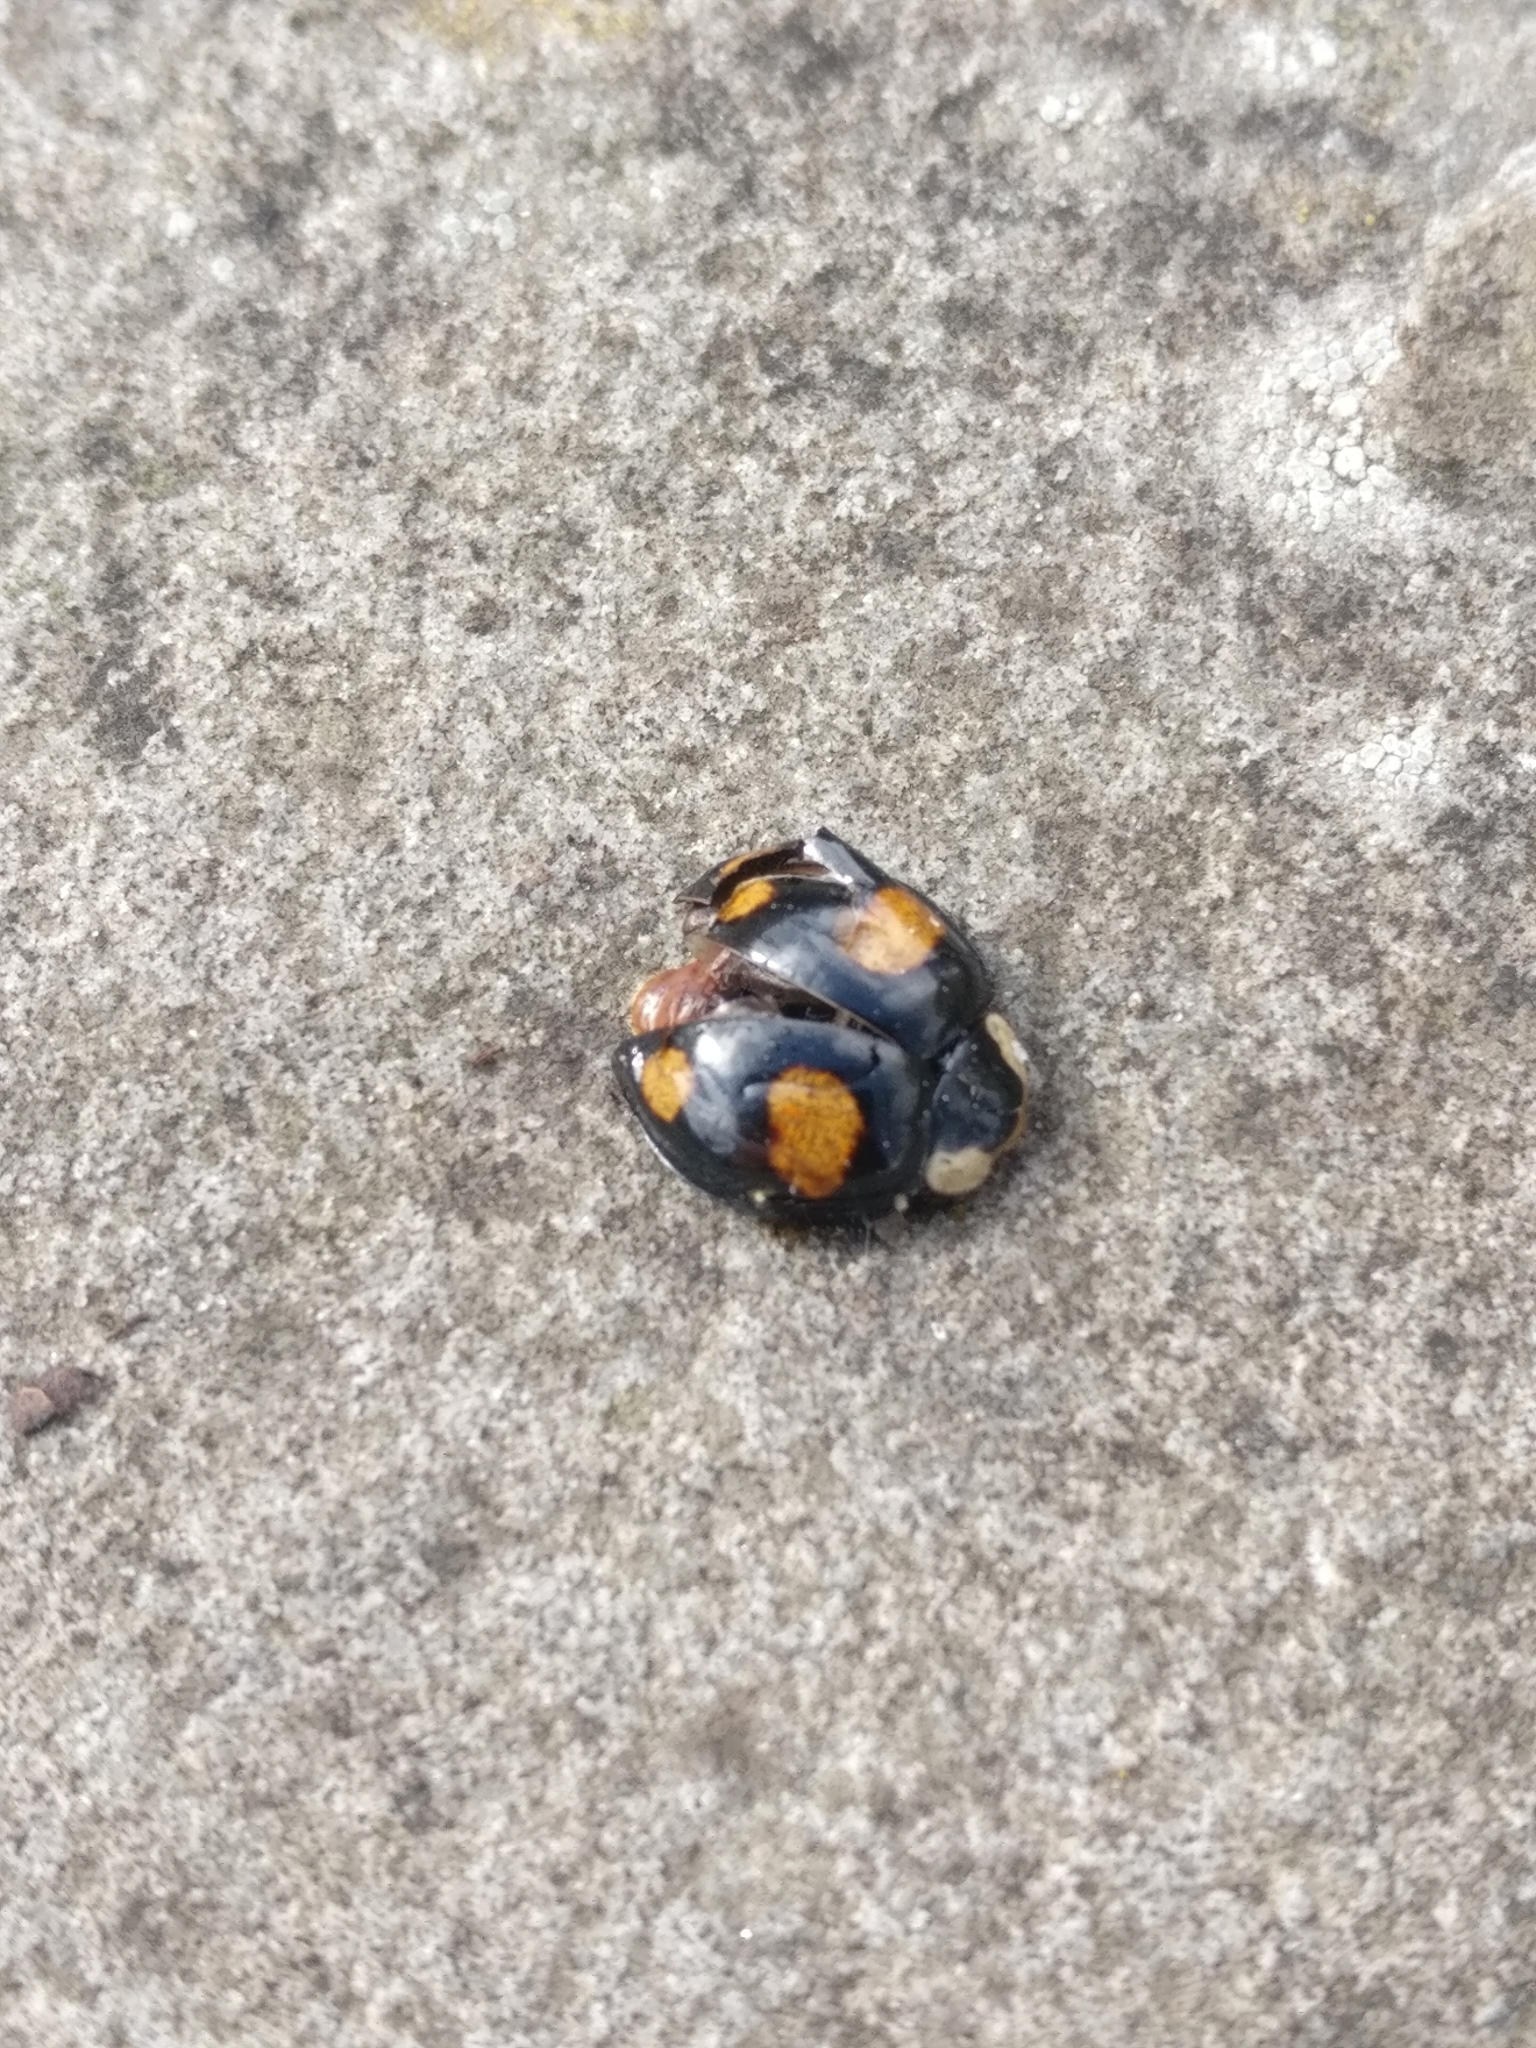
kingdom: Animalia
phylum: Arthropoda
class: Insecta
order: Coleoptera
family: Coccinellidae
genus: Harmonia
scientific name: Harmonia axyridis
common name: Harlequin ladybird
